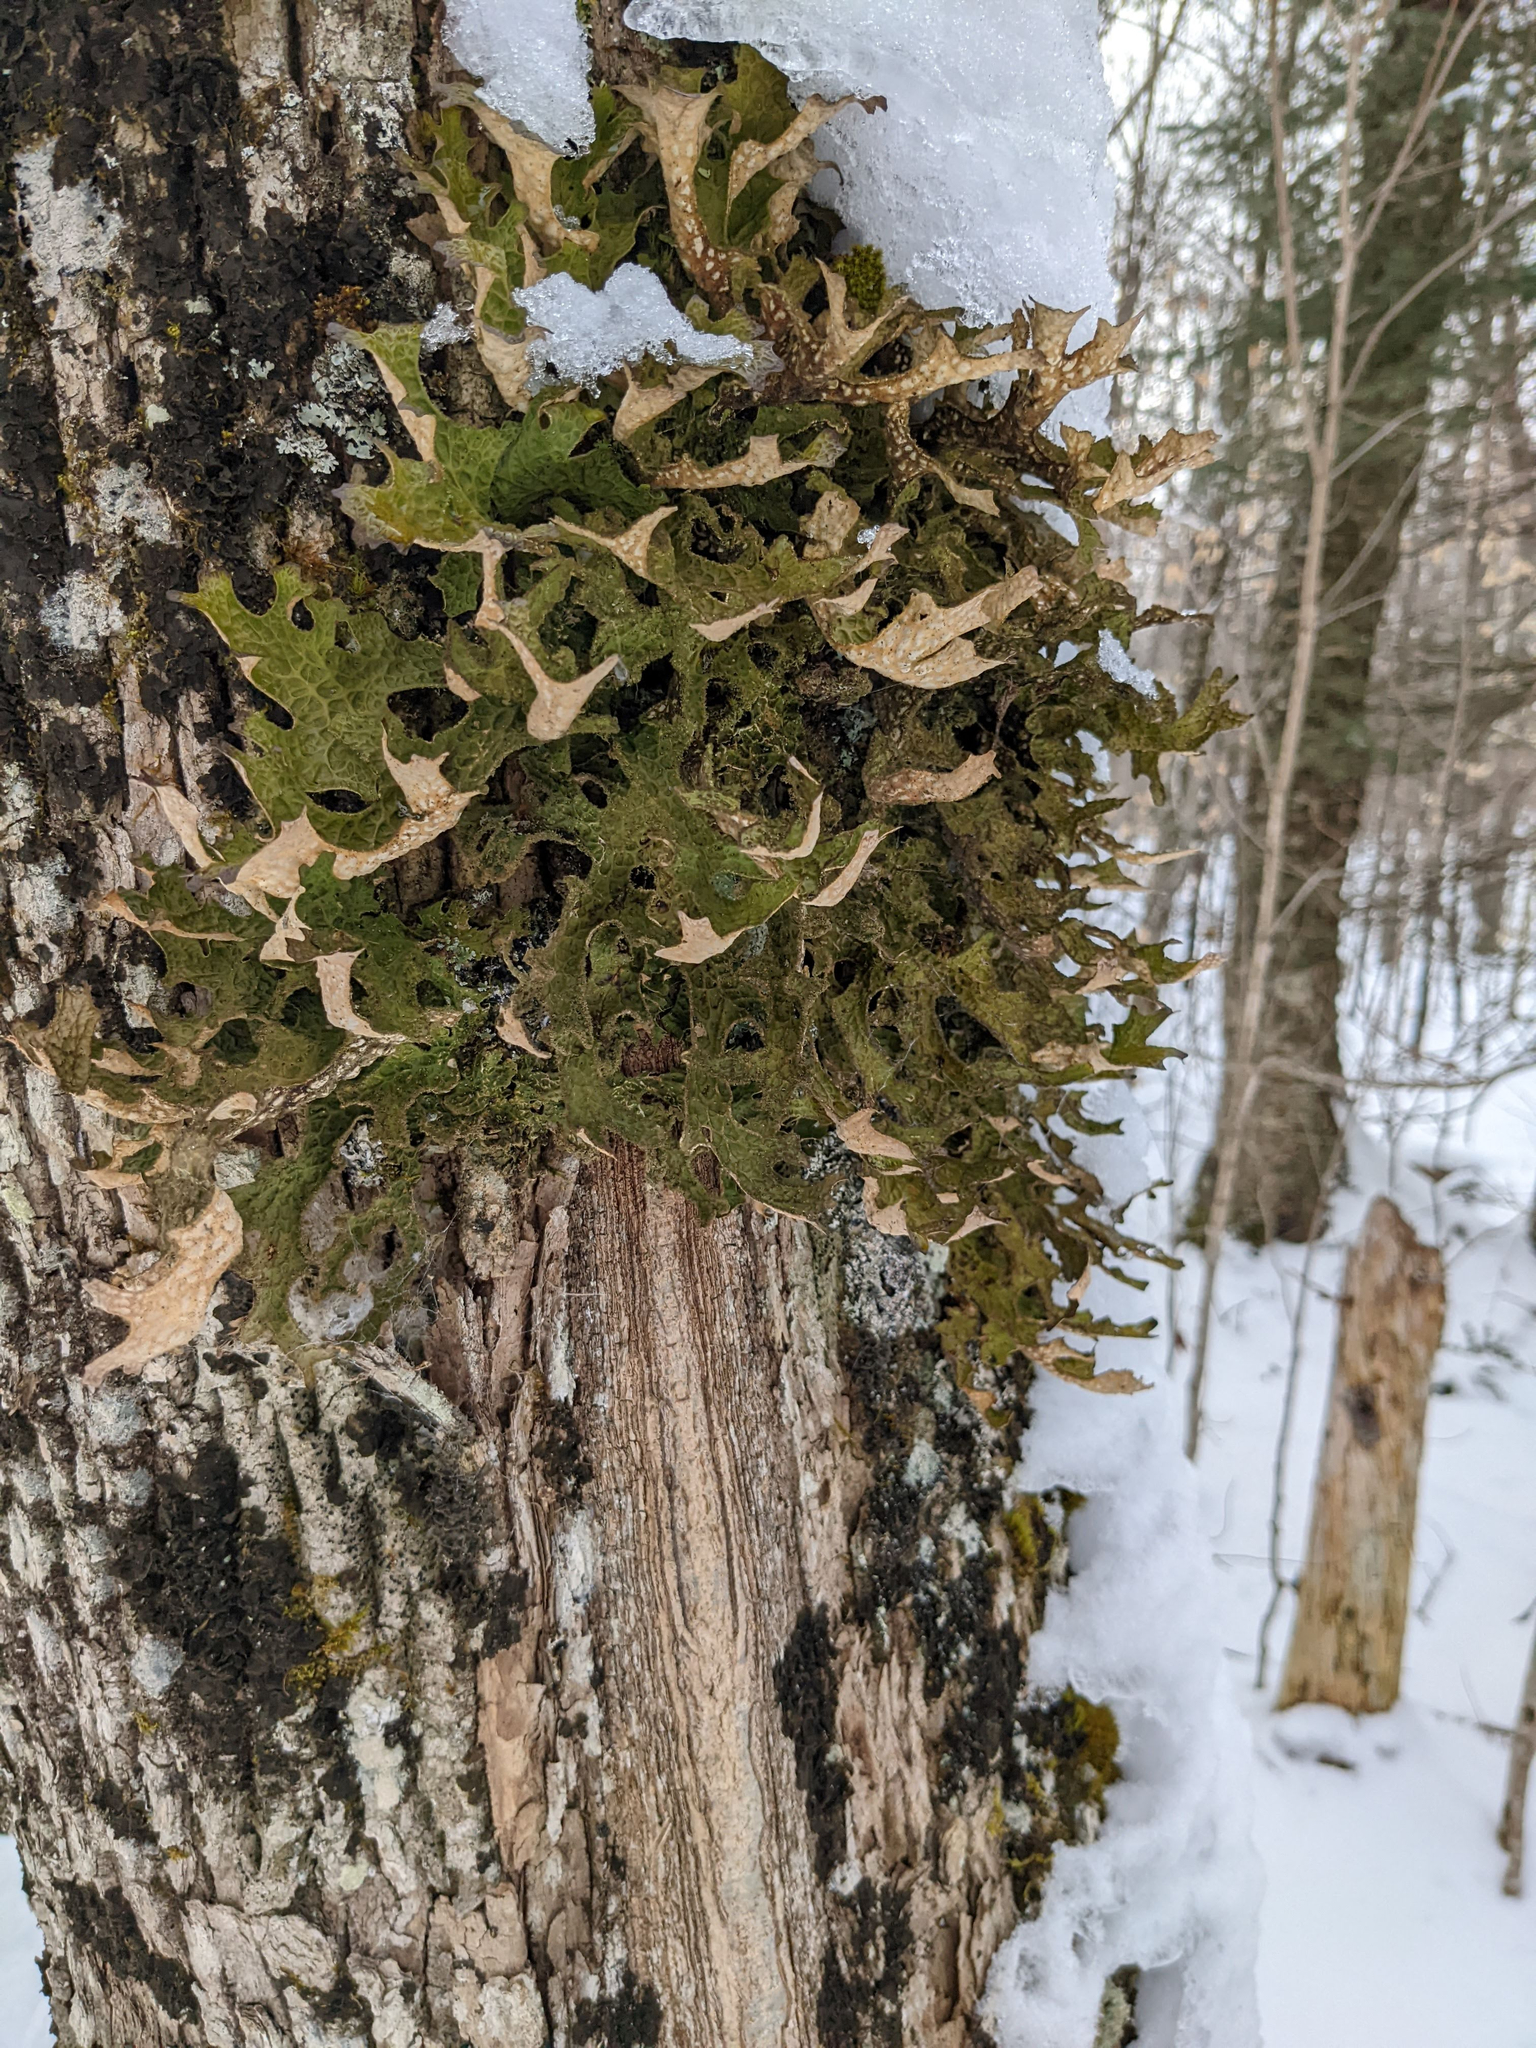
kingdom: Fungi
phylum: Ascomycota
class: Lecanoromycetes
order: Peltigerales
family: Lobariaceae
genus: Lobaria
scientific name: Lobaria pulmonaria
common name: Lungwort
